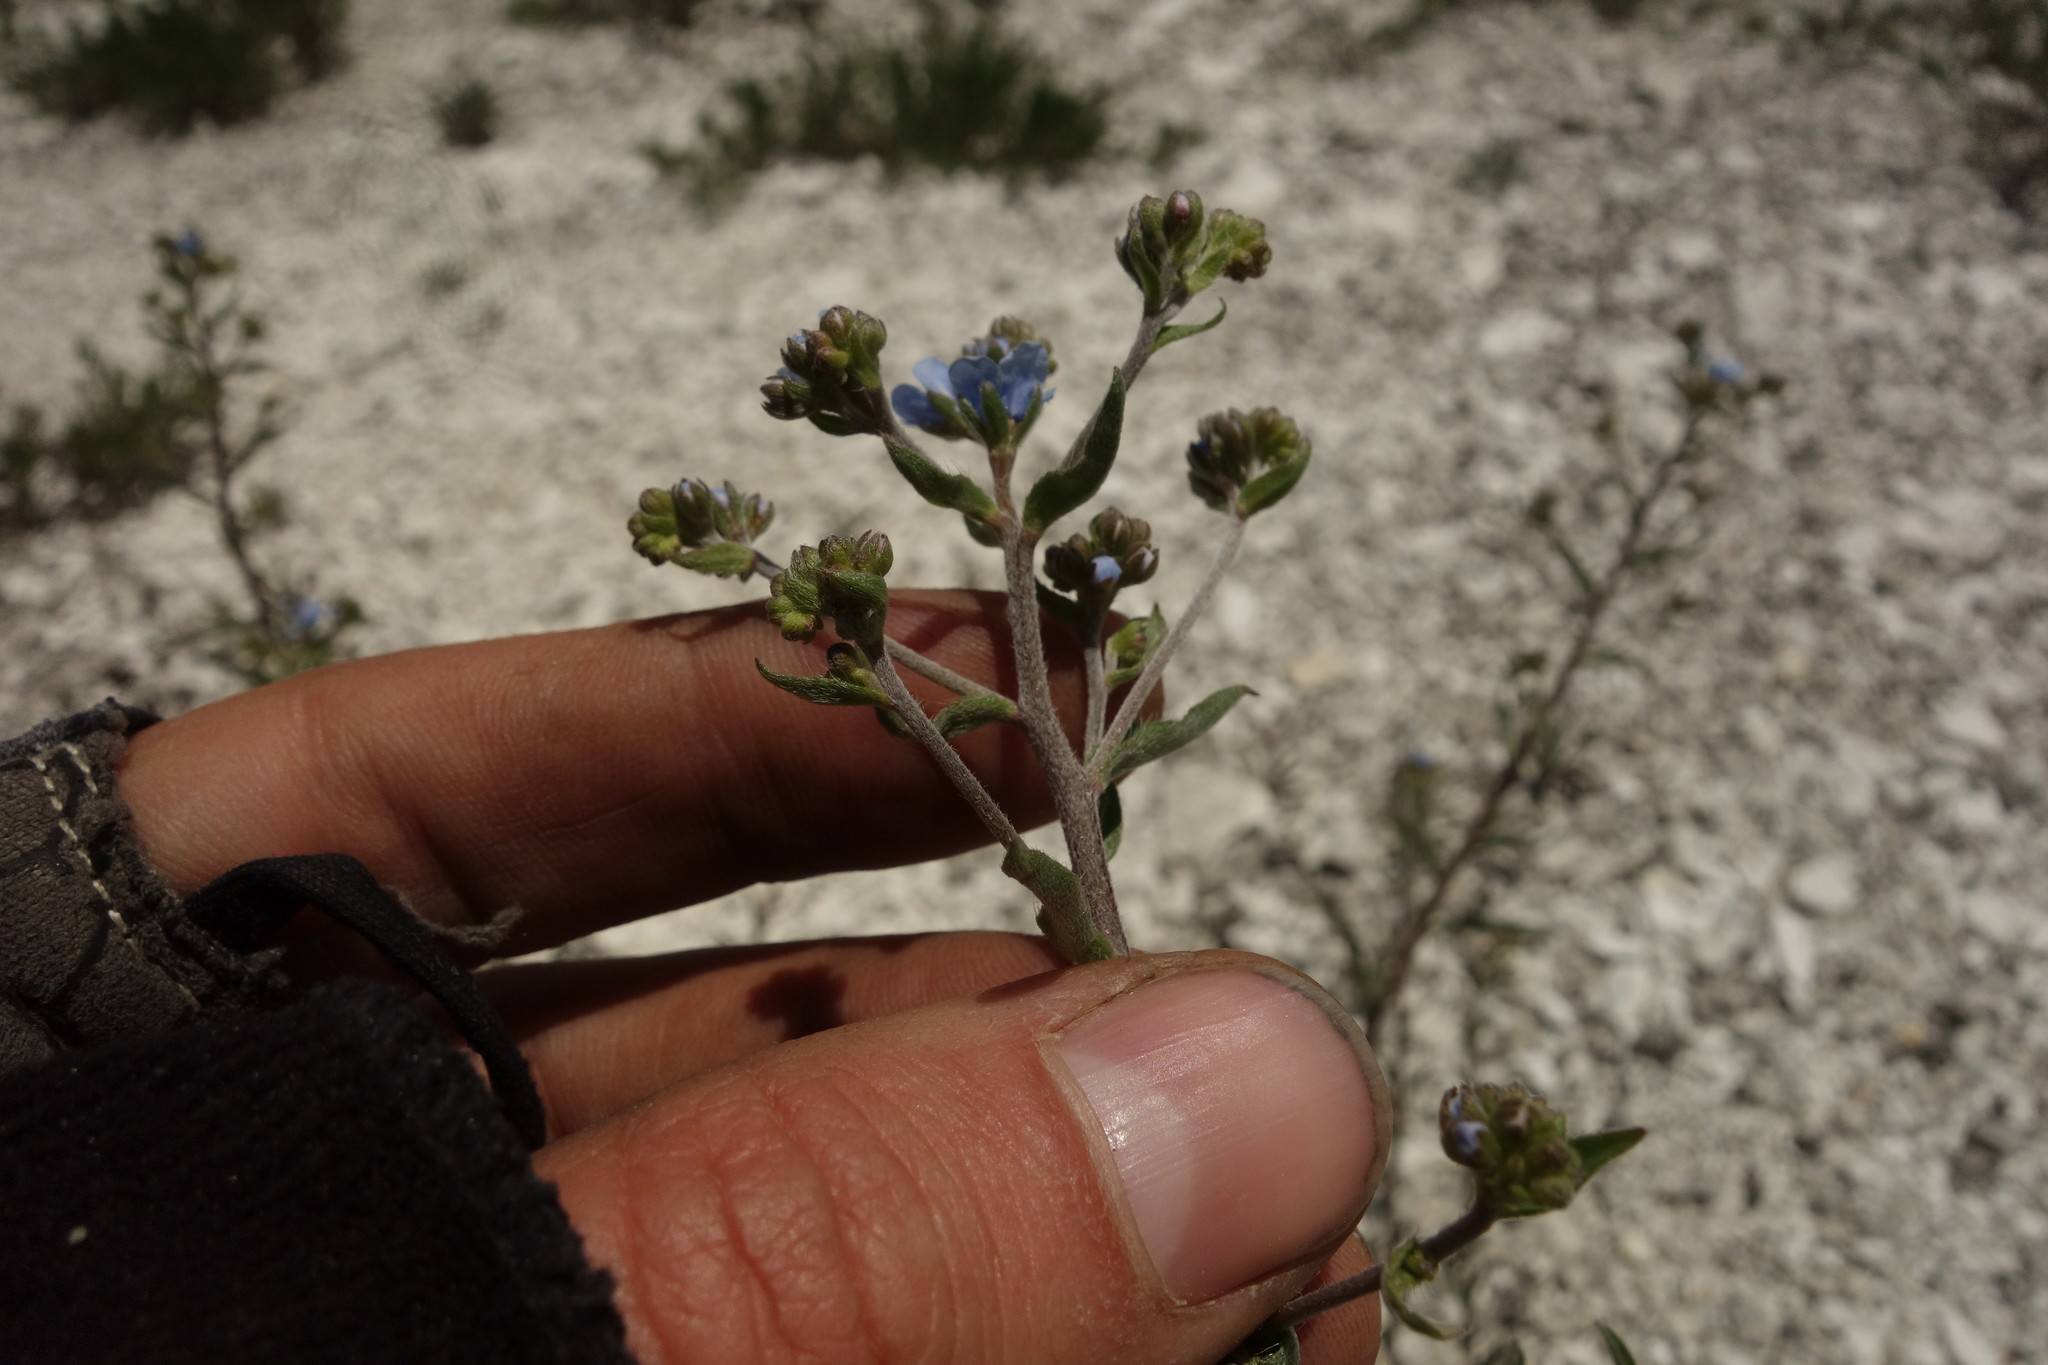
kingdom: Plantae
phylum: Tracheophyta
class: Magnoliopsida
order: Boraginales
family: Boraginaceae
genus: Lappula
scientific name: Lappula barbata
